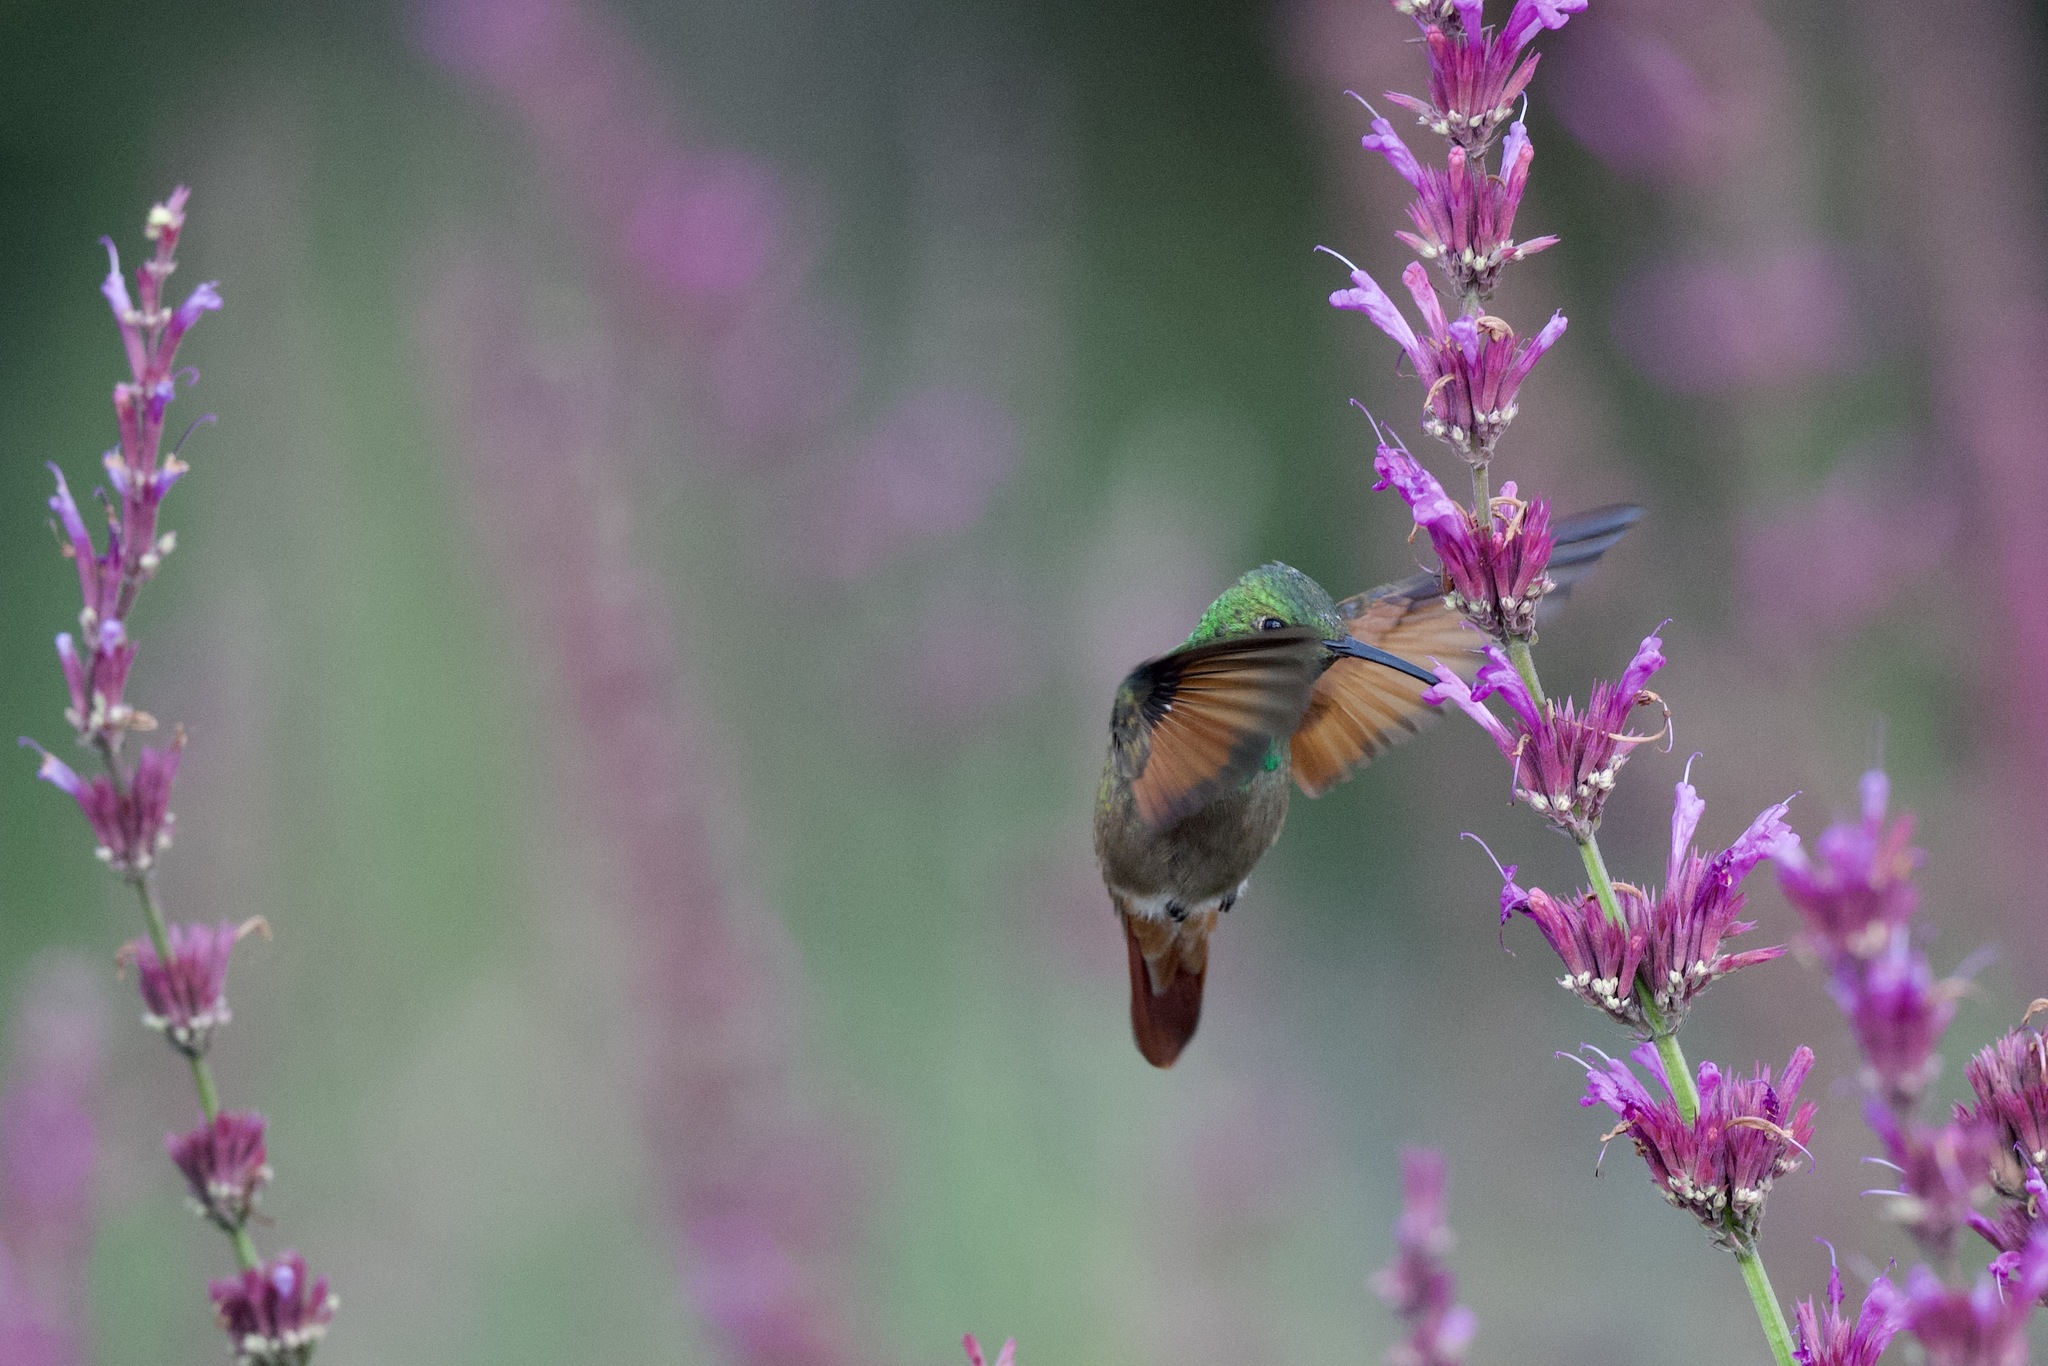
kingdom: Animalia
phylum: Chordata
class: Aves
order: Apodiformes
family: Trochilidae
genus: Saucerottia
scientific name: Saucerottia beryllina
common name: Berylline hummingbird
